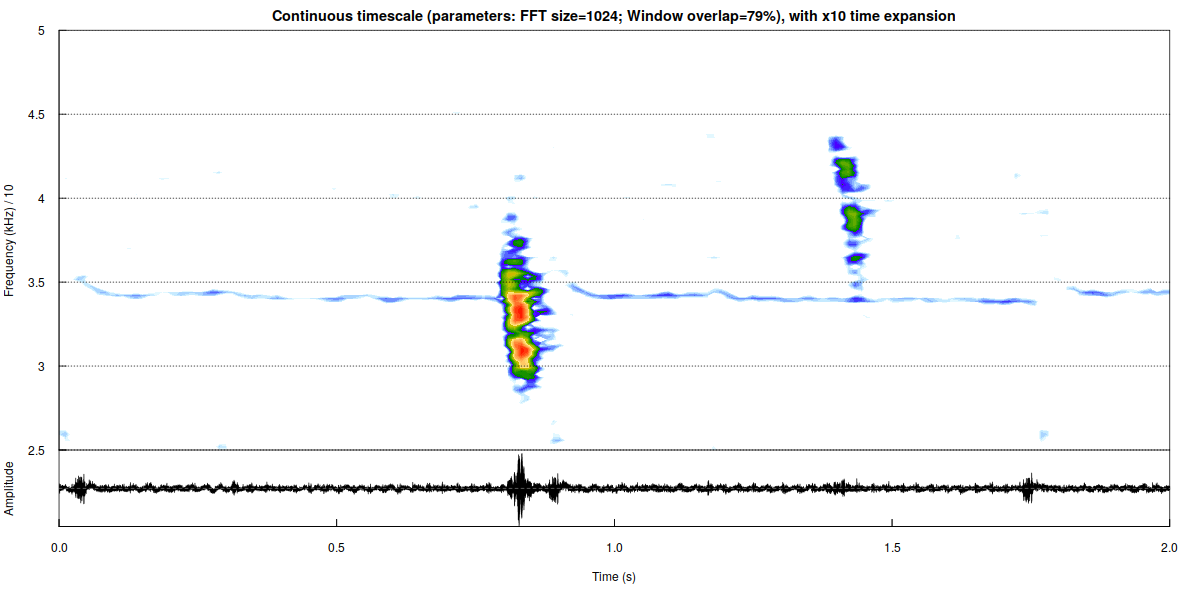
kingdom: Animalia
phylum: Chordata
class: Mammalia
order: Chiroptera
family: Vespertilionidae
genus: Barbastella
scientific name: Barbastella barbastellus
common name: Western barbastelle
